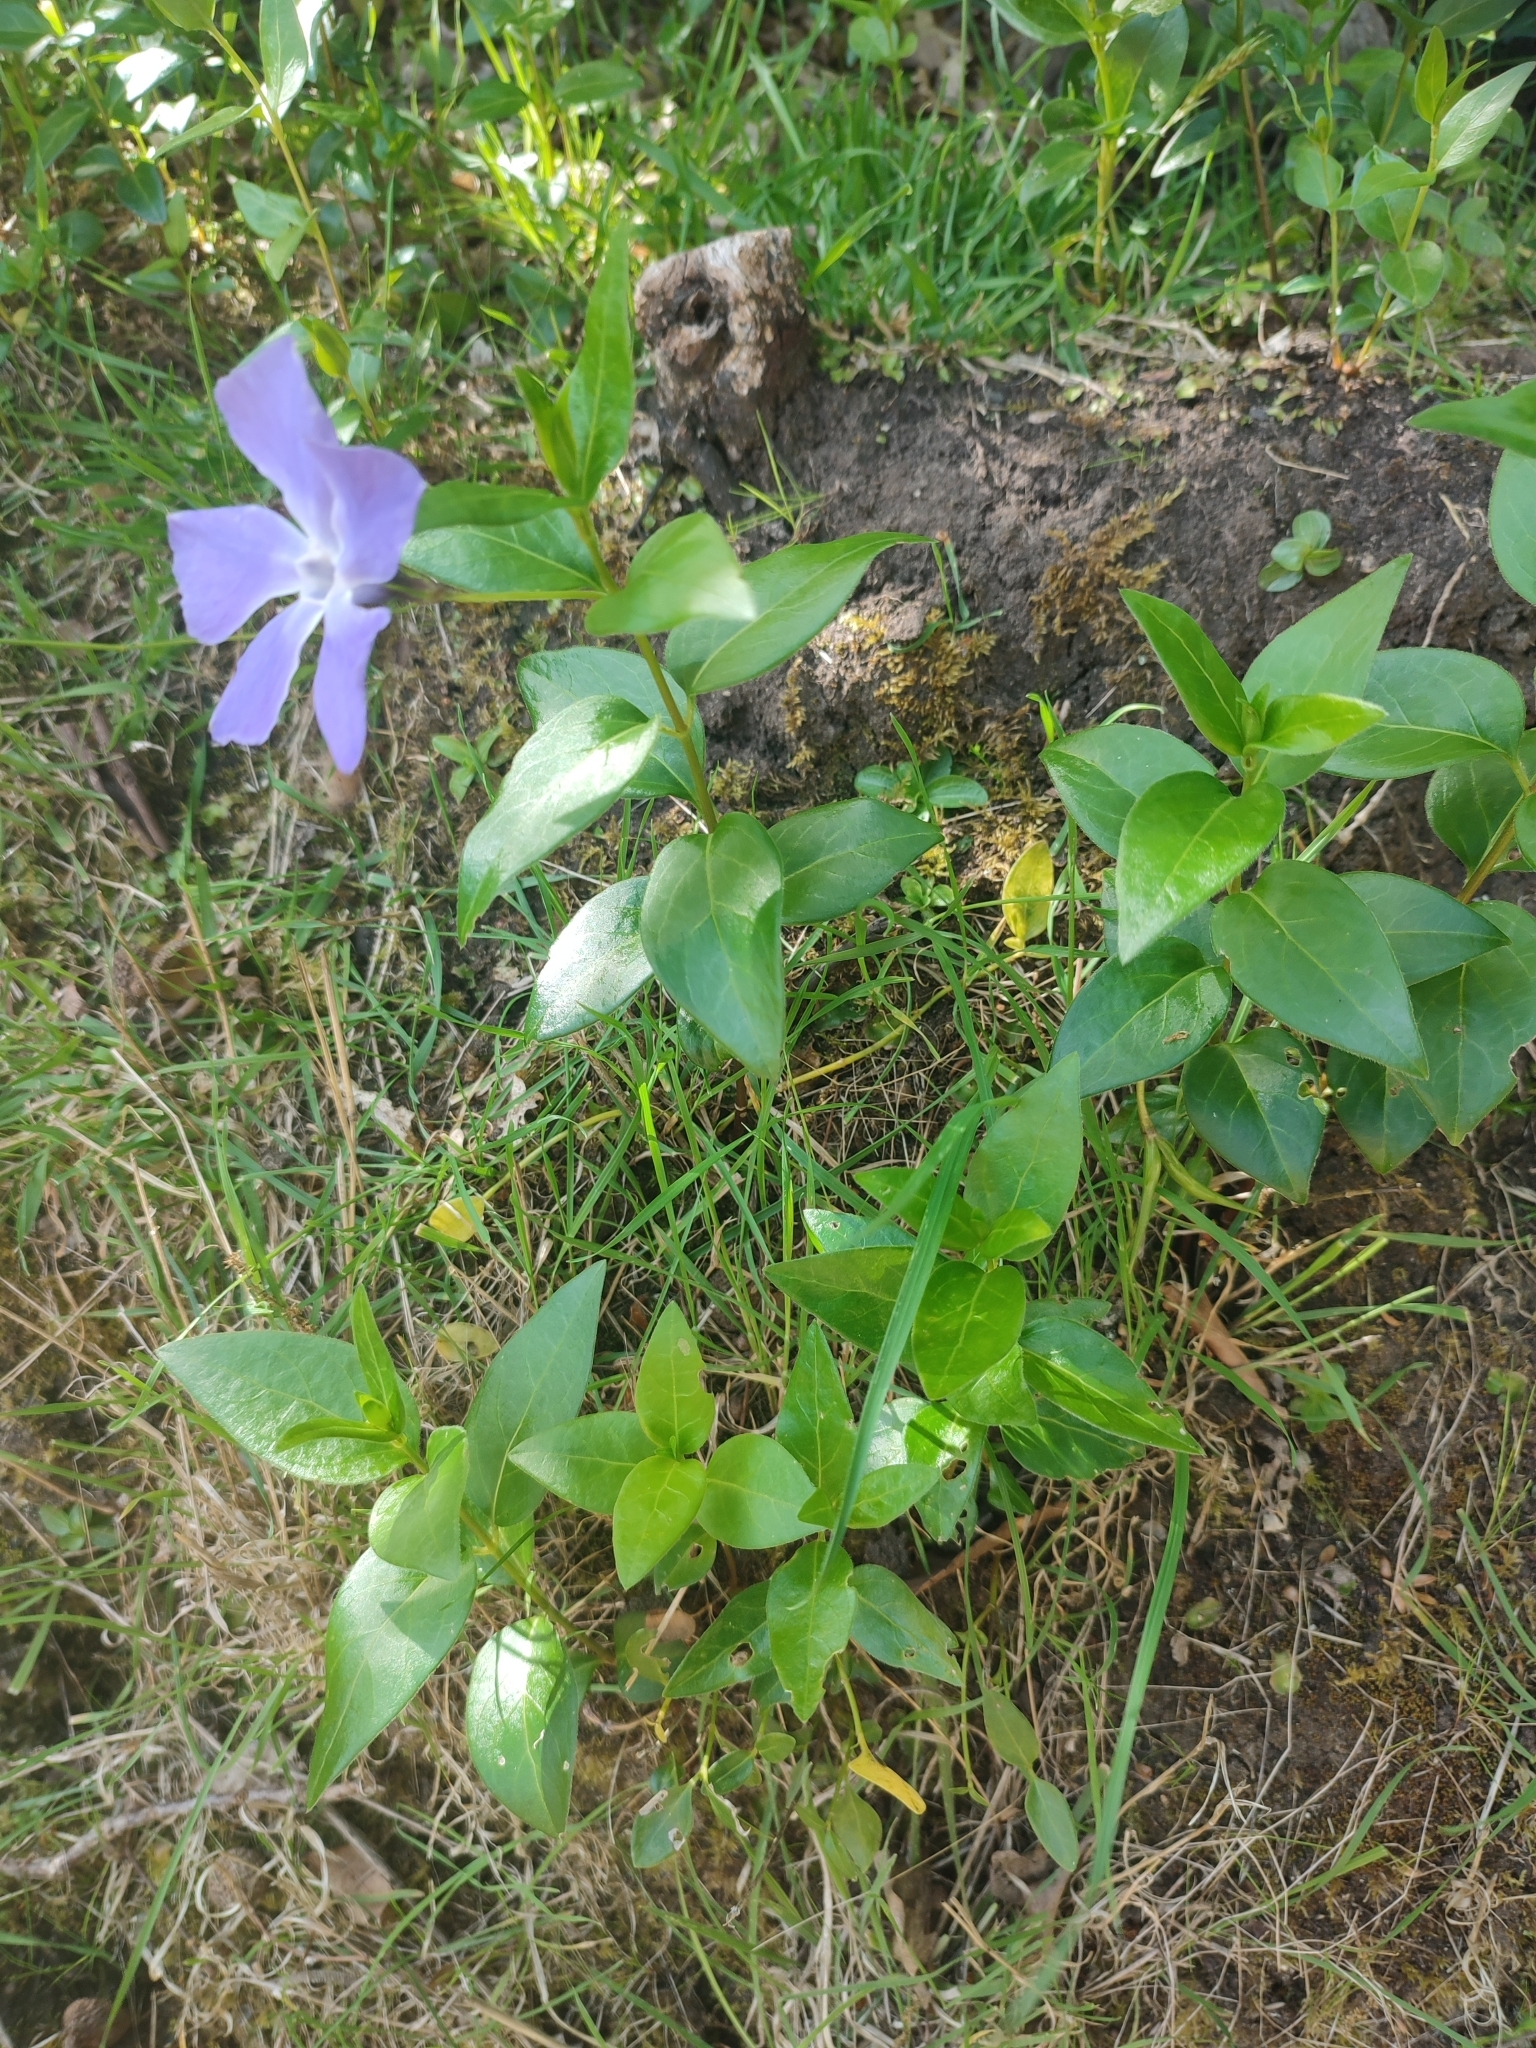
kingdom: Plantae
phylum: Tracheophyta
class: Magnoliopsida
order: Gentianales
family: Apocynaceae
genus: Vinca
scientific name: Vinca major
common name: Greater periwinkle
